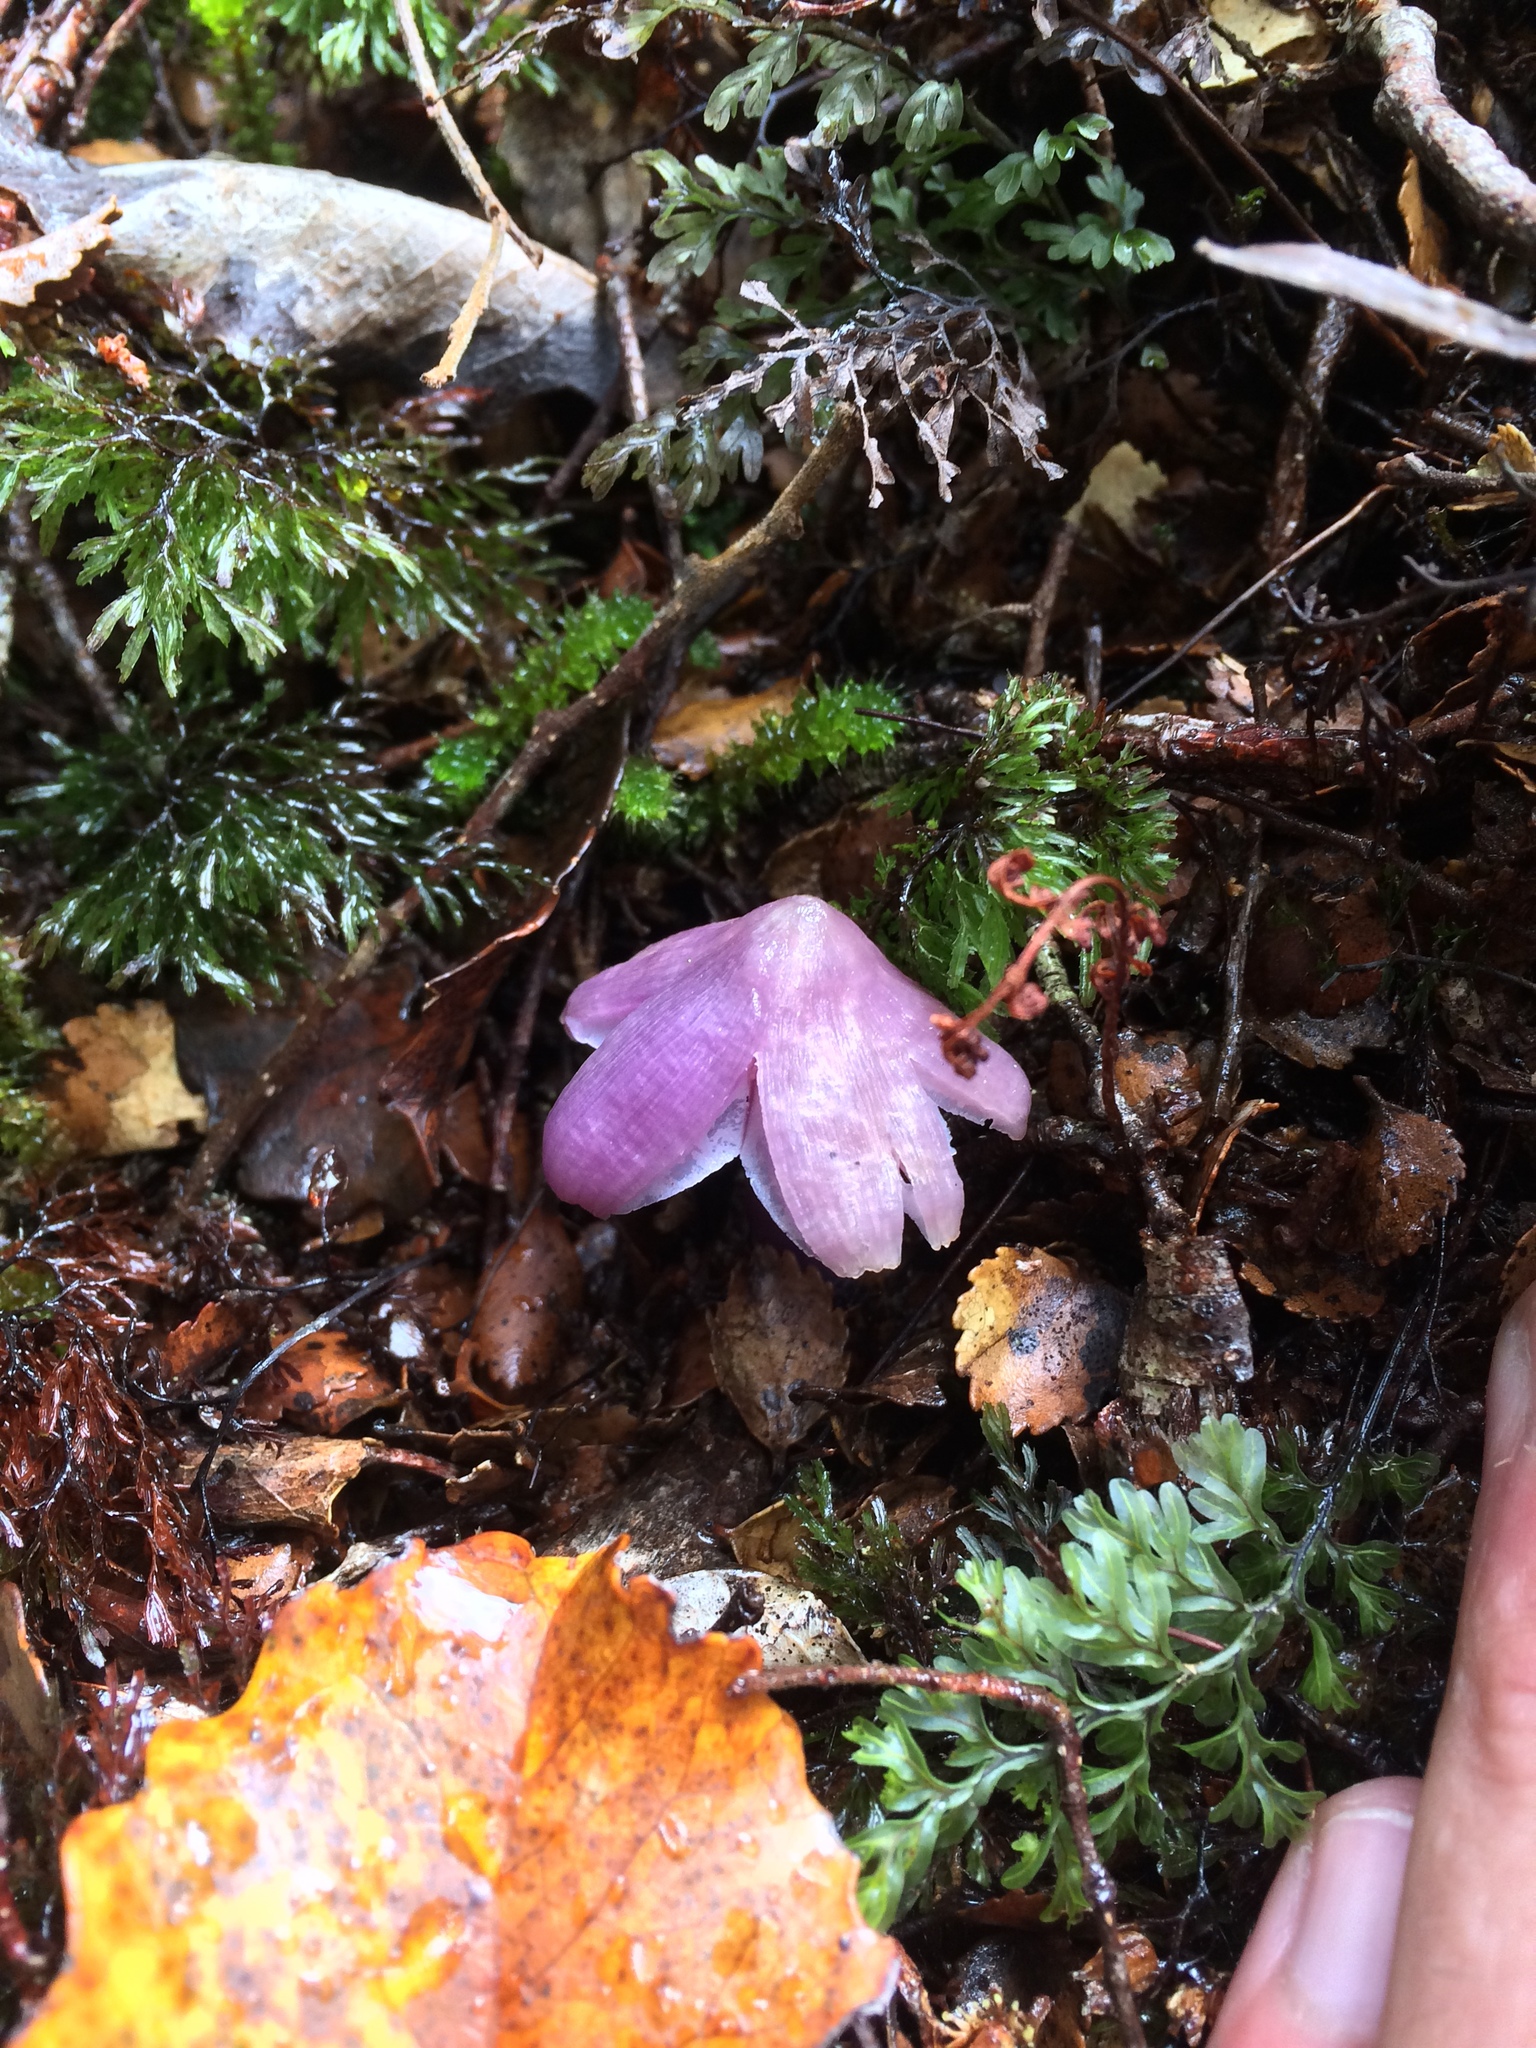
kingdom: Fungi
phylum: Basidiomycota
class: Agaricomycetes
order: Agaricales
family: Hygrophoraceae
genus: Porpolomopsis
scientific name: Porpolomopsis lewelliniae
